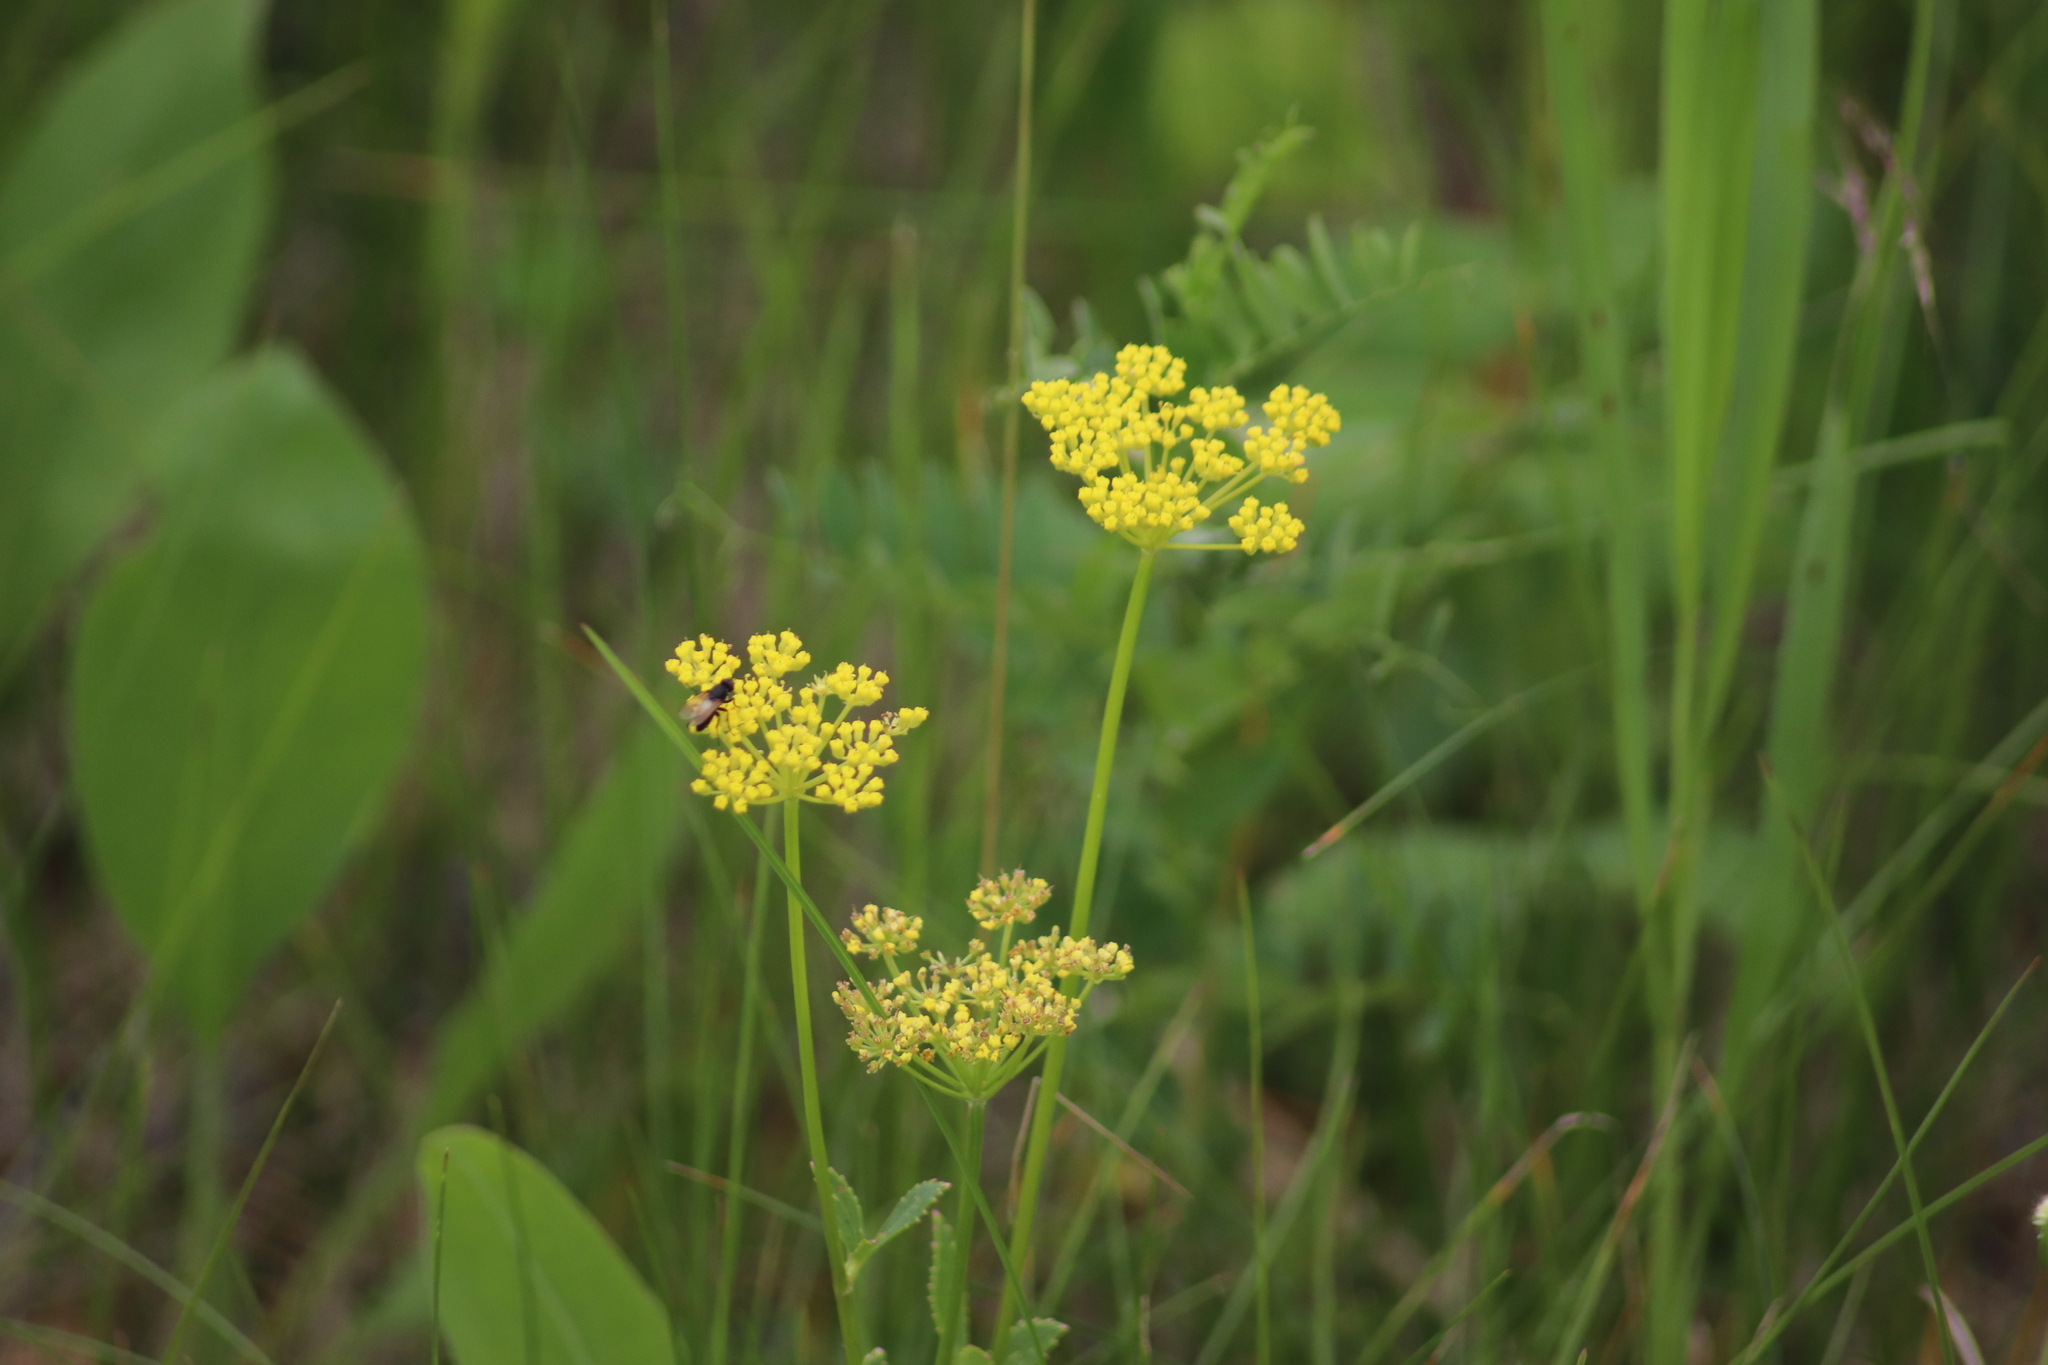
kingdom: Plantae
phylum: Tracheophyta
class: Magnoliopsida
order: Apiales
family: Apiaceae
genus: Zizia
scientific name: Zizia aptera
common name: Heart-leaved alexanders
